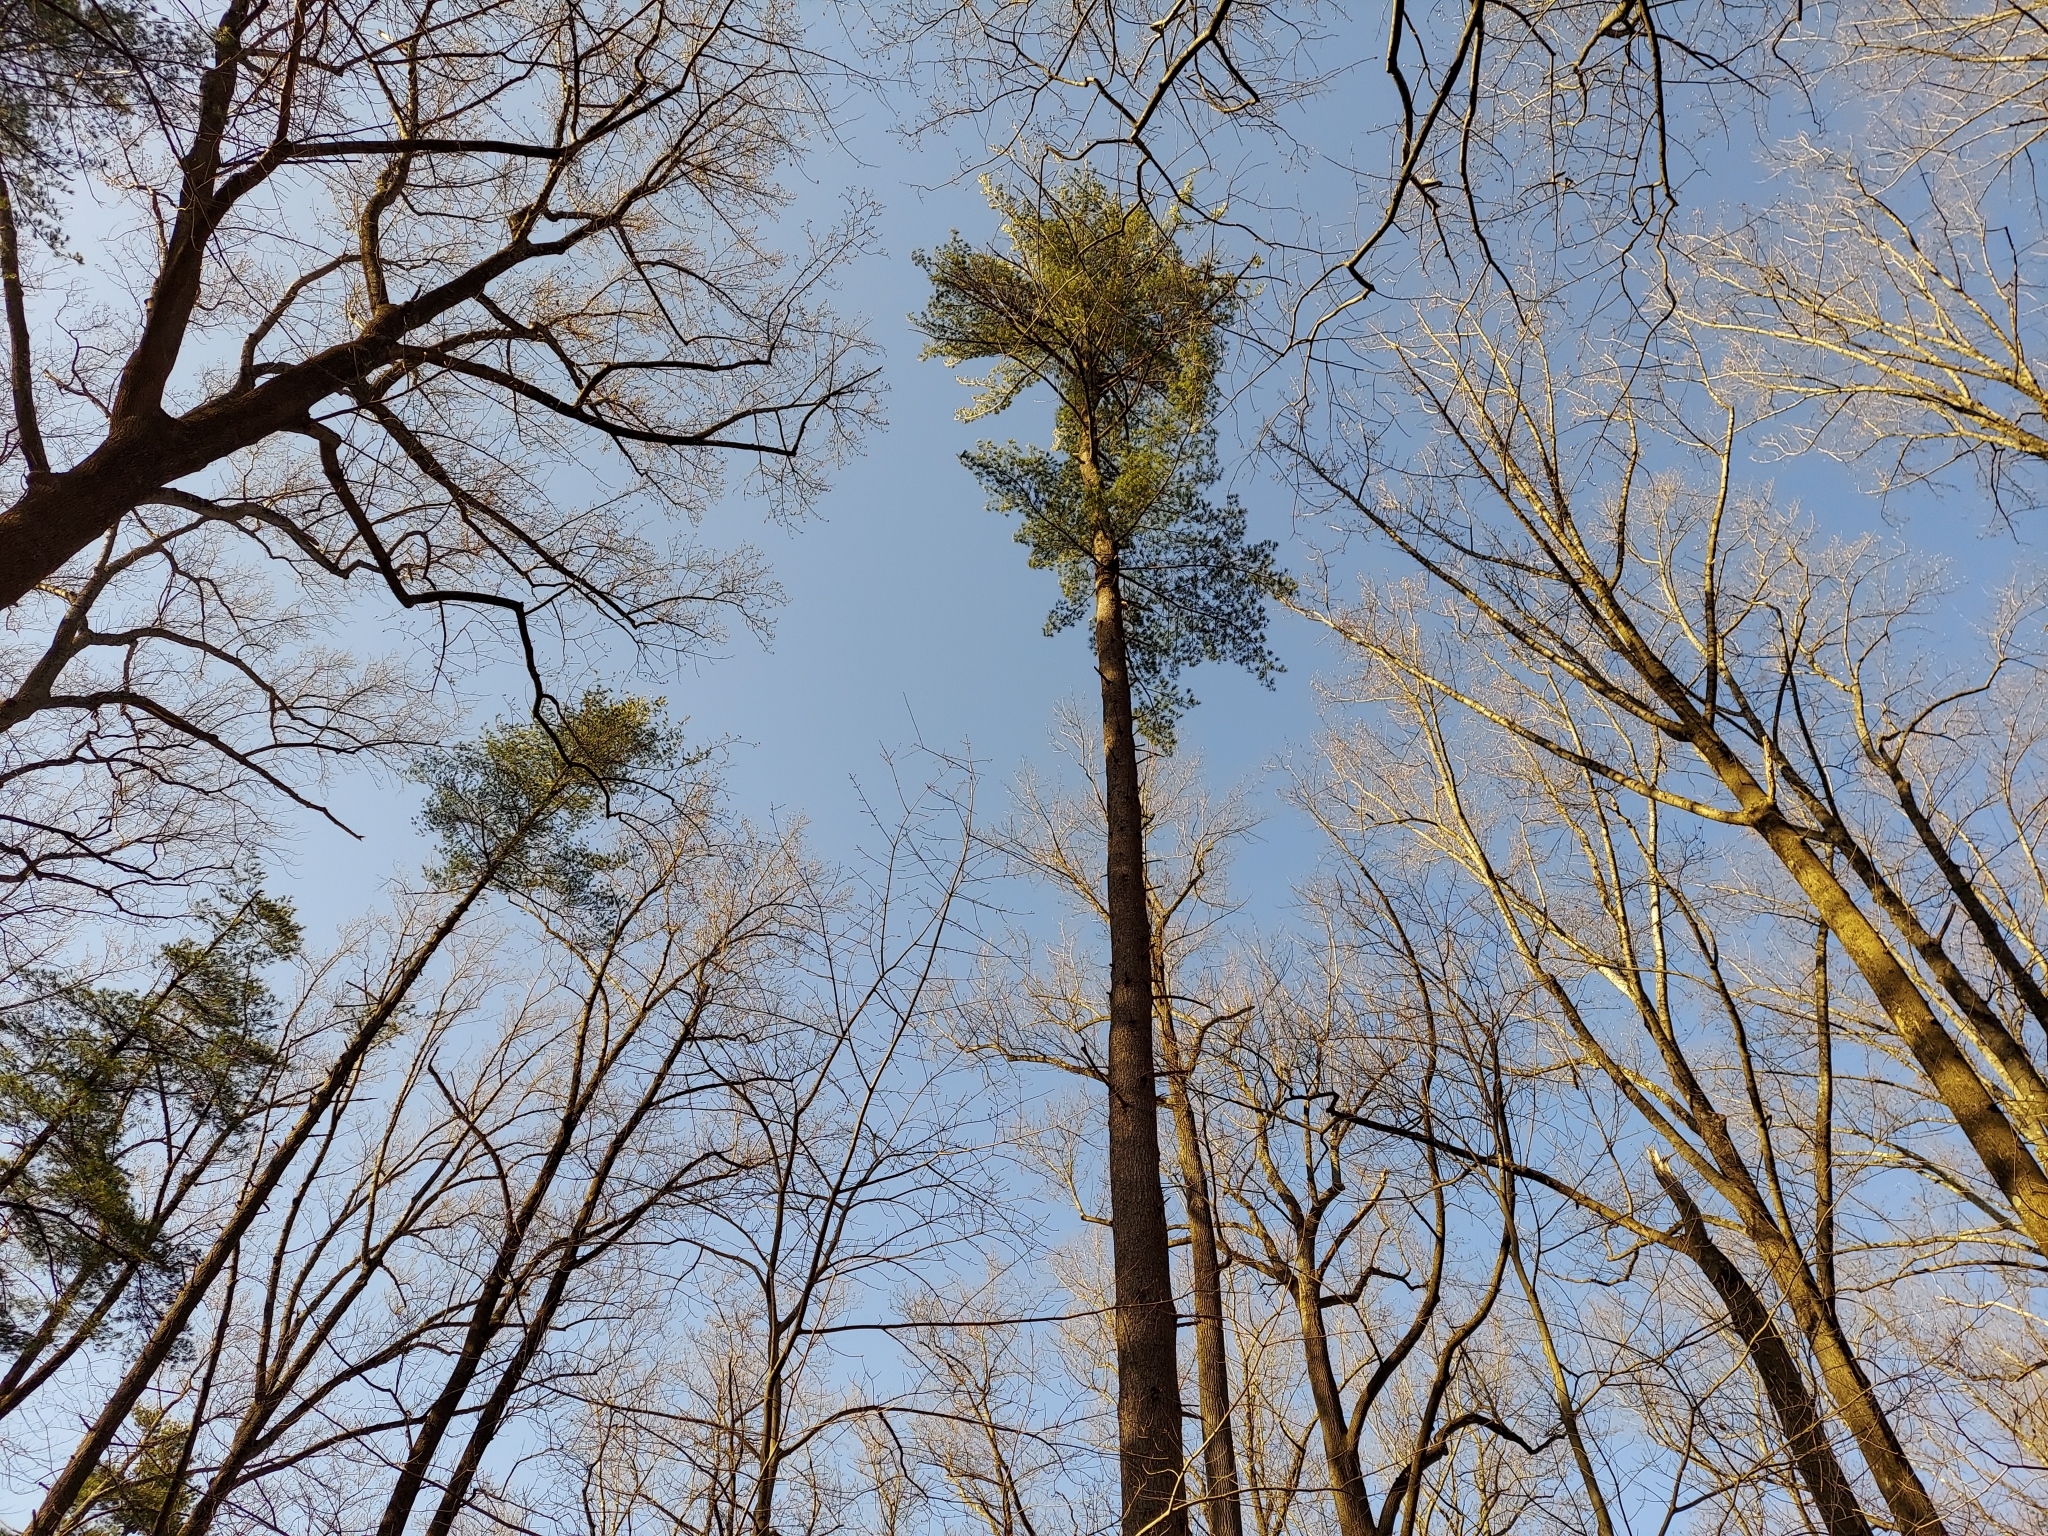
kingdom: Plantae
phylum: Tracheophyta
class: Pinopsida
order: Pinales
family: Pinaceae
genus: Pinus
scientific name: Pinus strobus
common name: Weymouth pine
